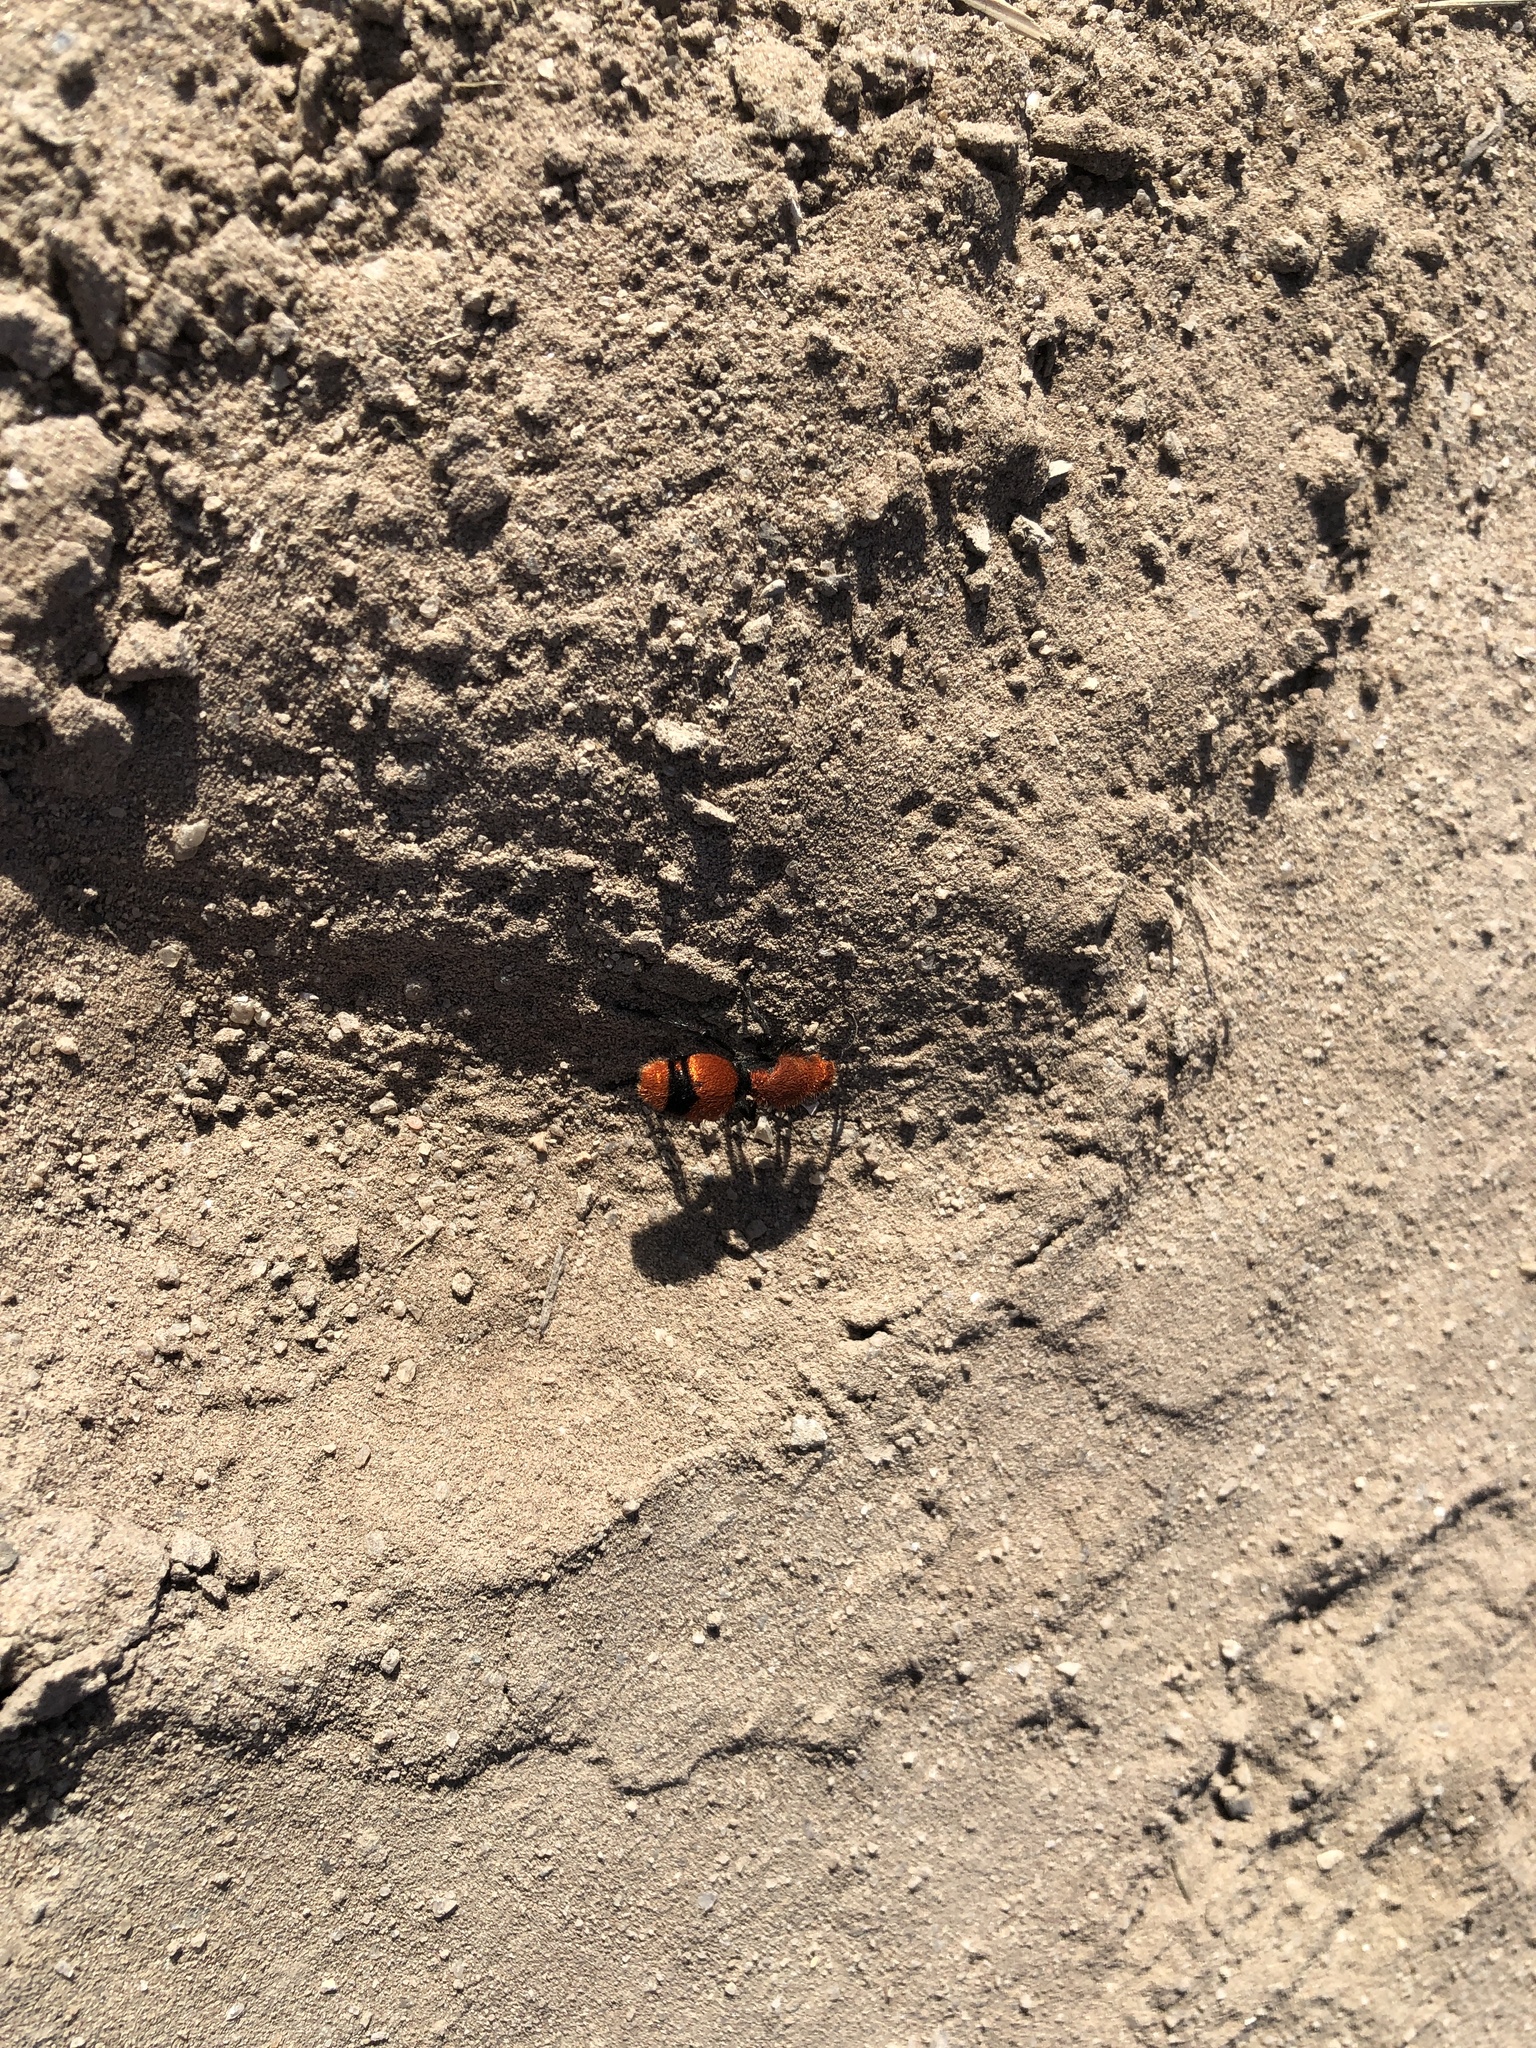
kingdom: Animalia
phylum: Arthropoda
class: Insecta
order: Hymenoptera
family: Mutillidae
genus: Dasymutilla
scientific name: Dasymutilla occidentalis
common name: Common eastern velvet ant
